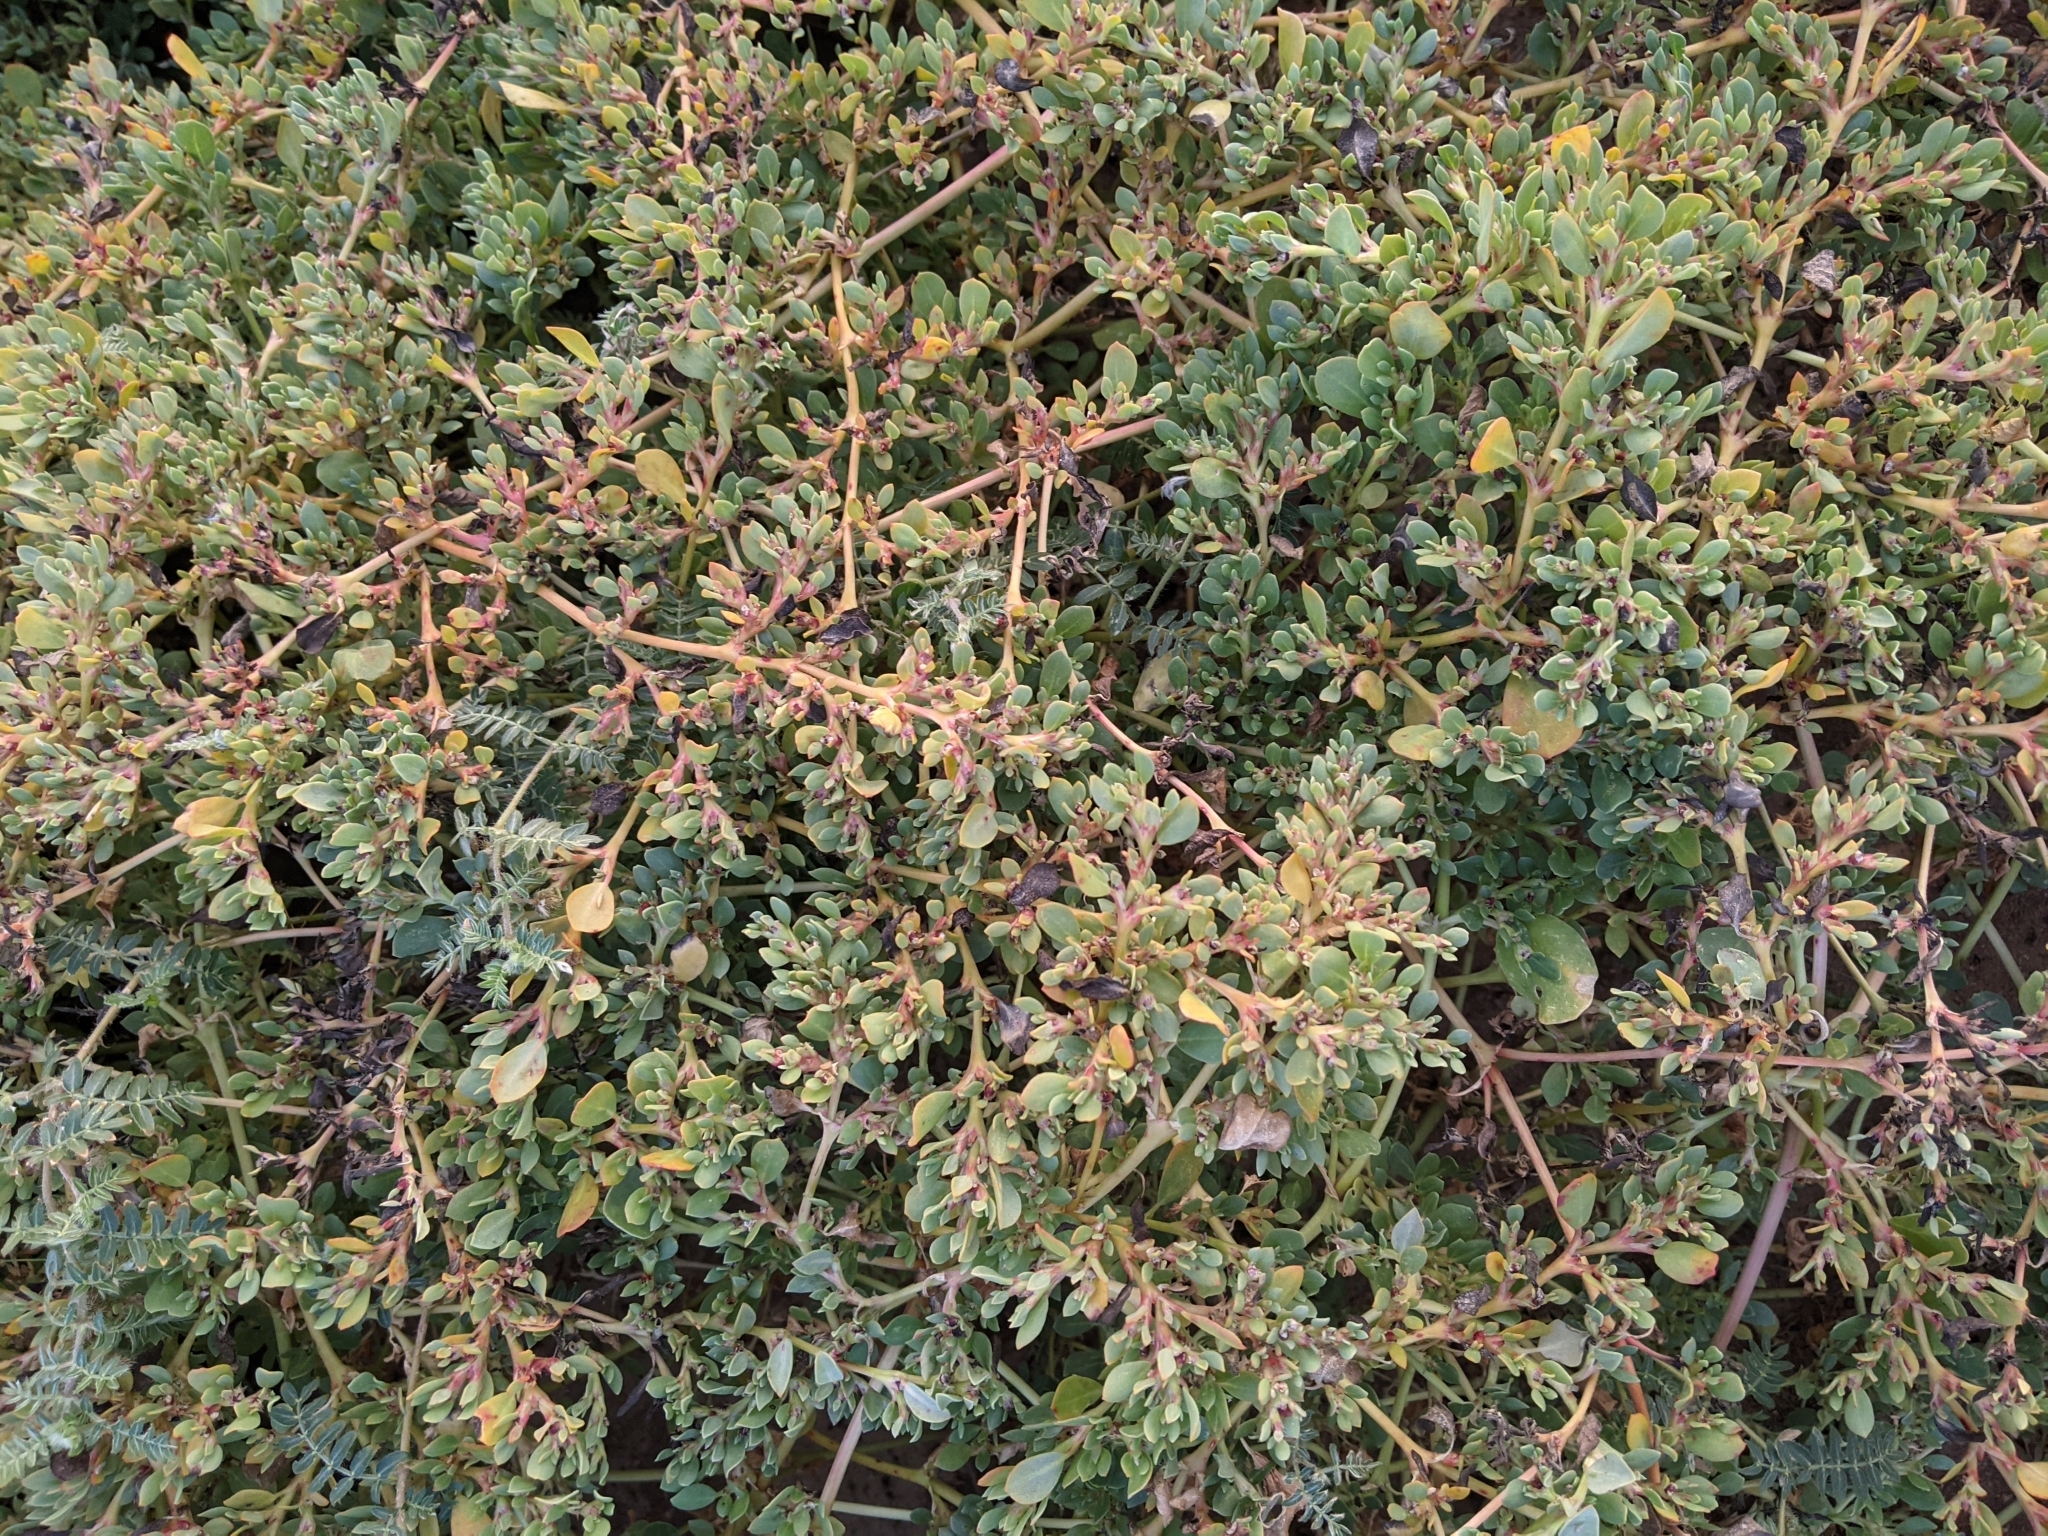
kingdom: Plantae
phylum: Tracheophyta
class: Magnoliopsida
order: Caryophyllales
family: Aizoaceae
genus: Trianthema
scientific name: Trianthema portulacastrum
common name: Desert horsepurslane
